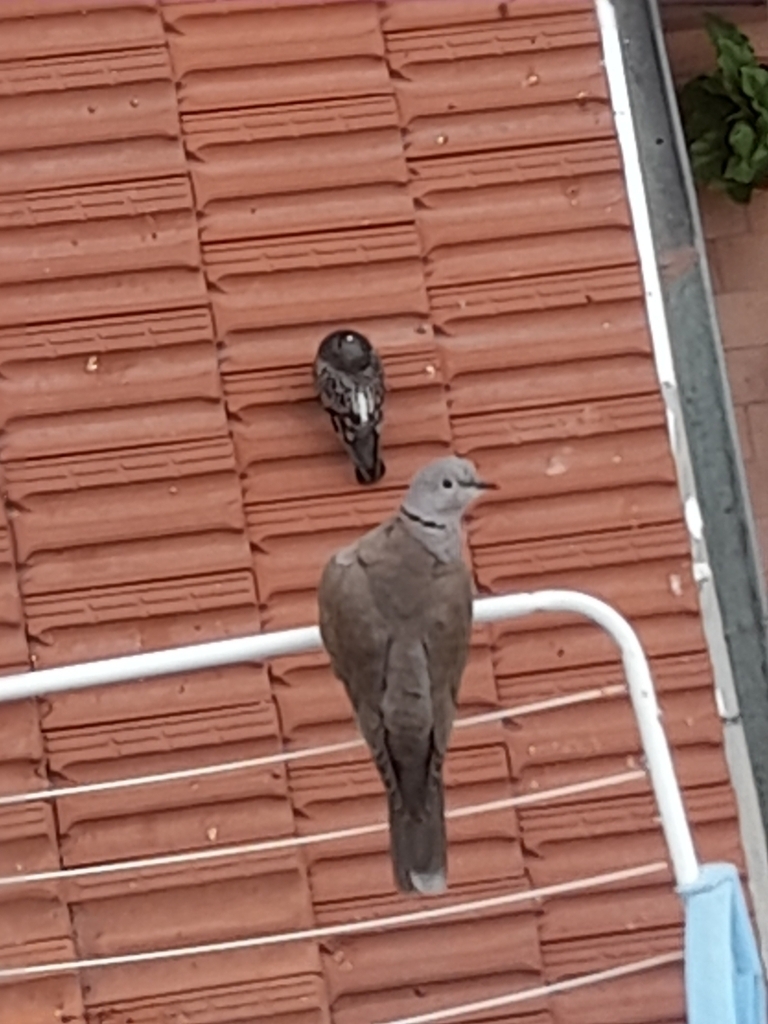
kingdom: Animalia
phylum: Chordata
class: Aves
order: Columbiformes
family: Columbidae
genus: Columba
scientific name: Columba livia
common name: Rock pigeon
